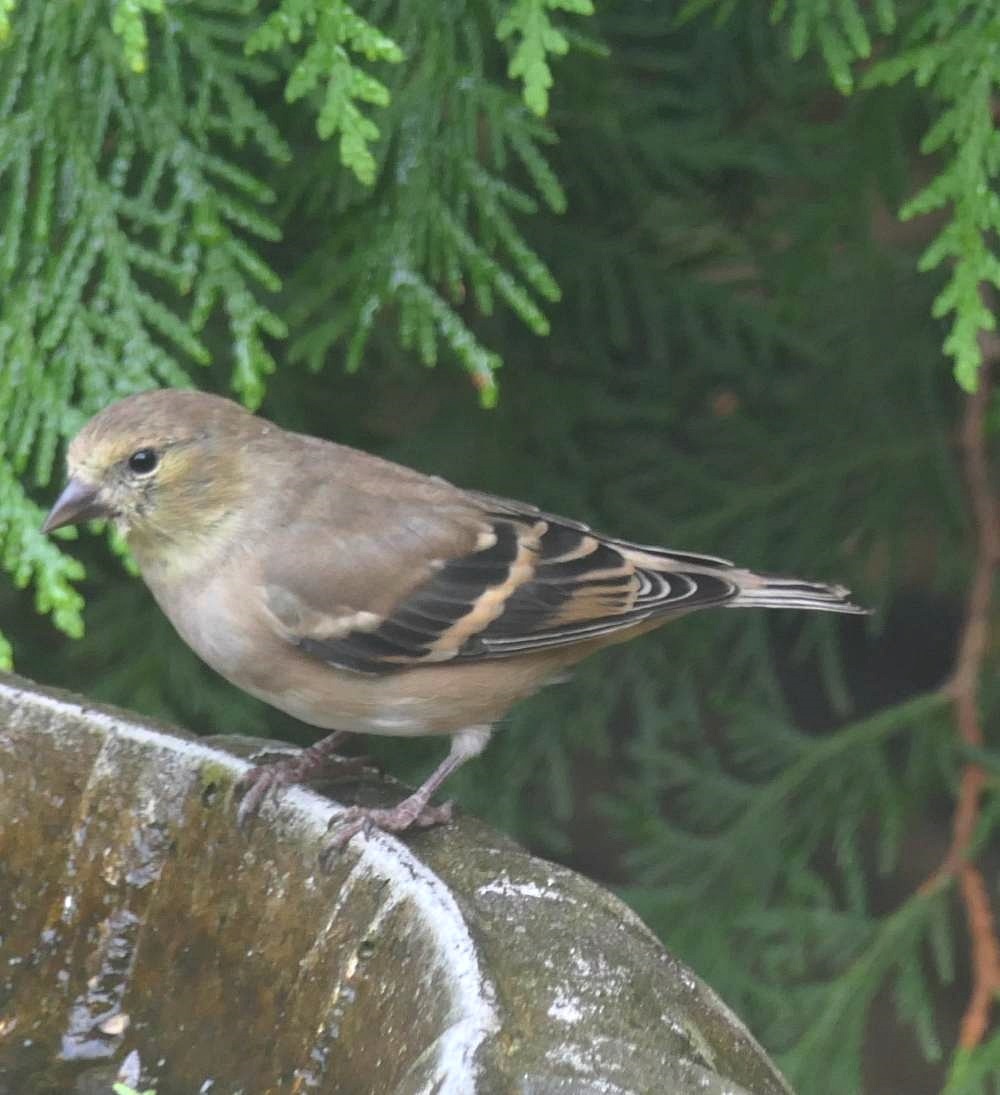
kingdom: Animalia
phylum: Chordata
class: Aves
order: Passeriformes
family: Fringillidae
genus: Spinus
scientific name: Spinus tristis
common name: American goldfinch
